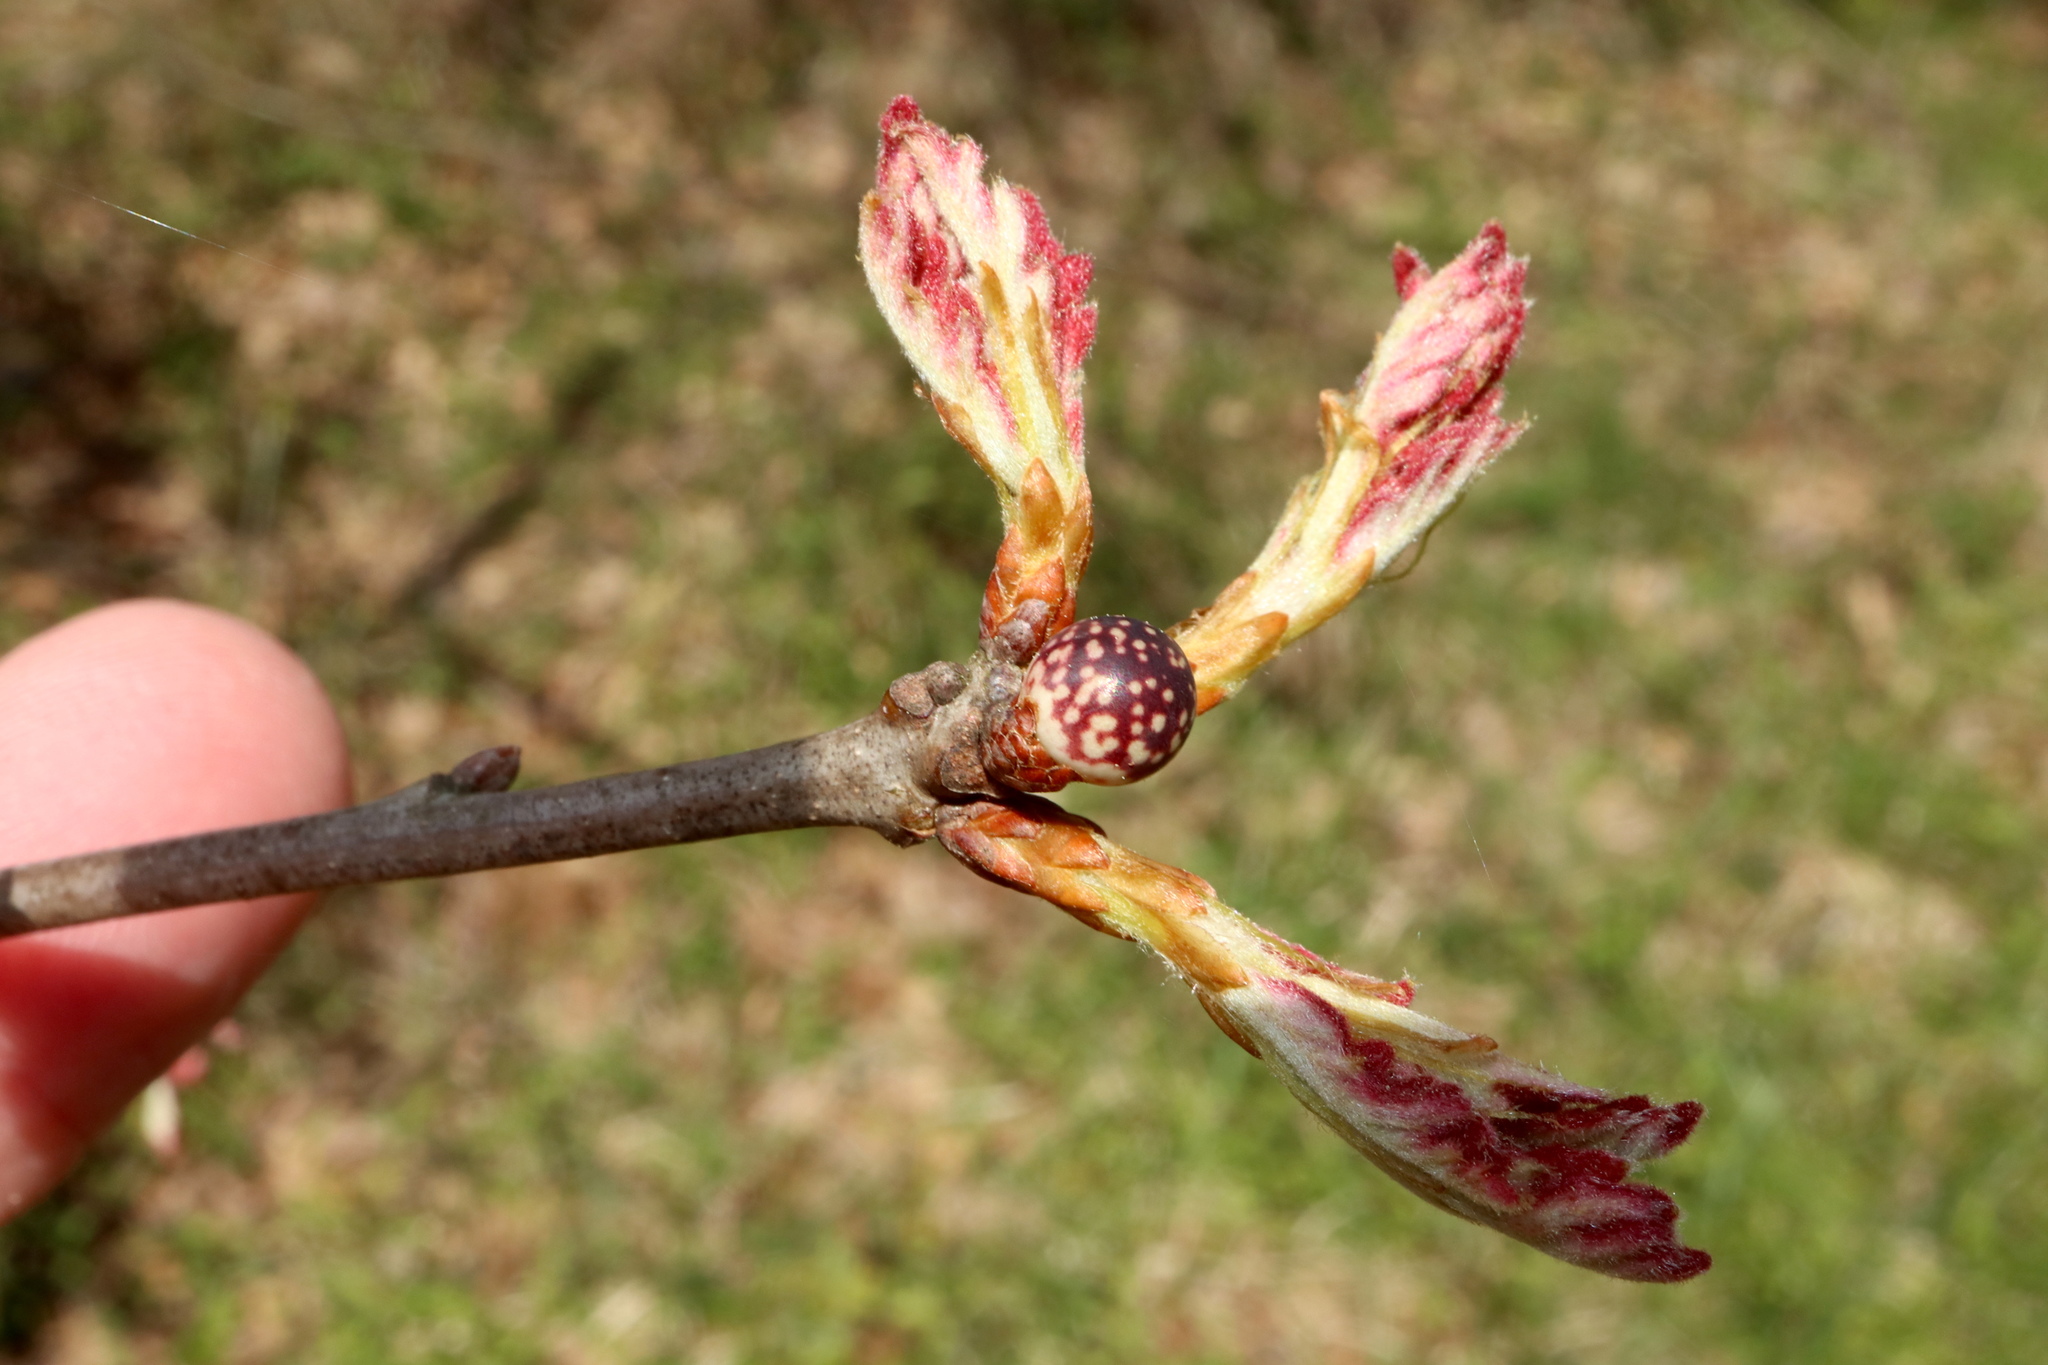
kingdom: Animalia
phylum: Arthropoda
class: Insecta
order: Hymenoptera
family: Cynipidae
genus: Andricus
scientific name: Andricus
